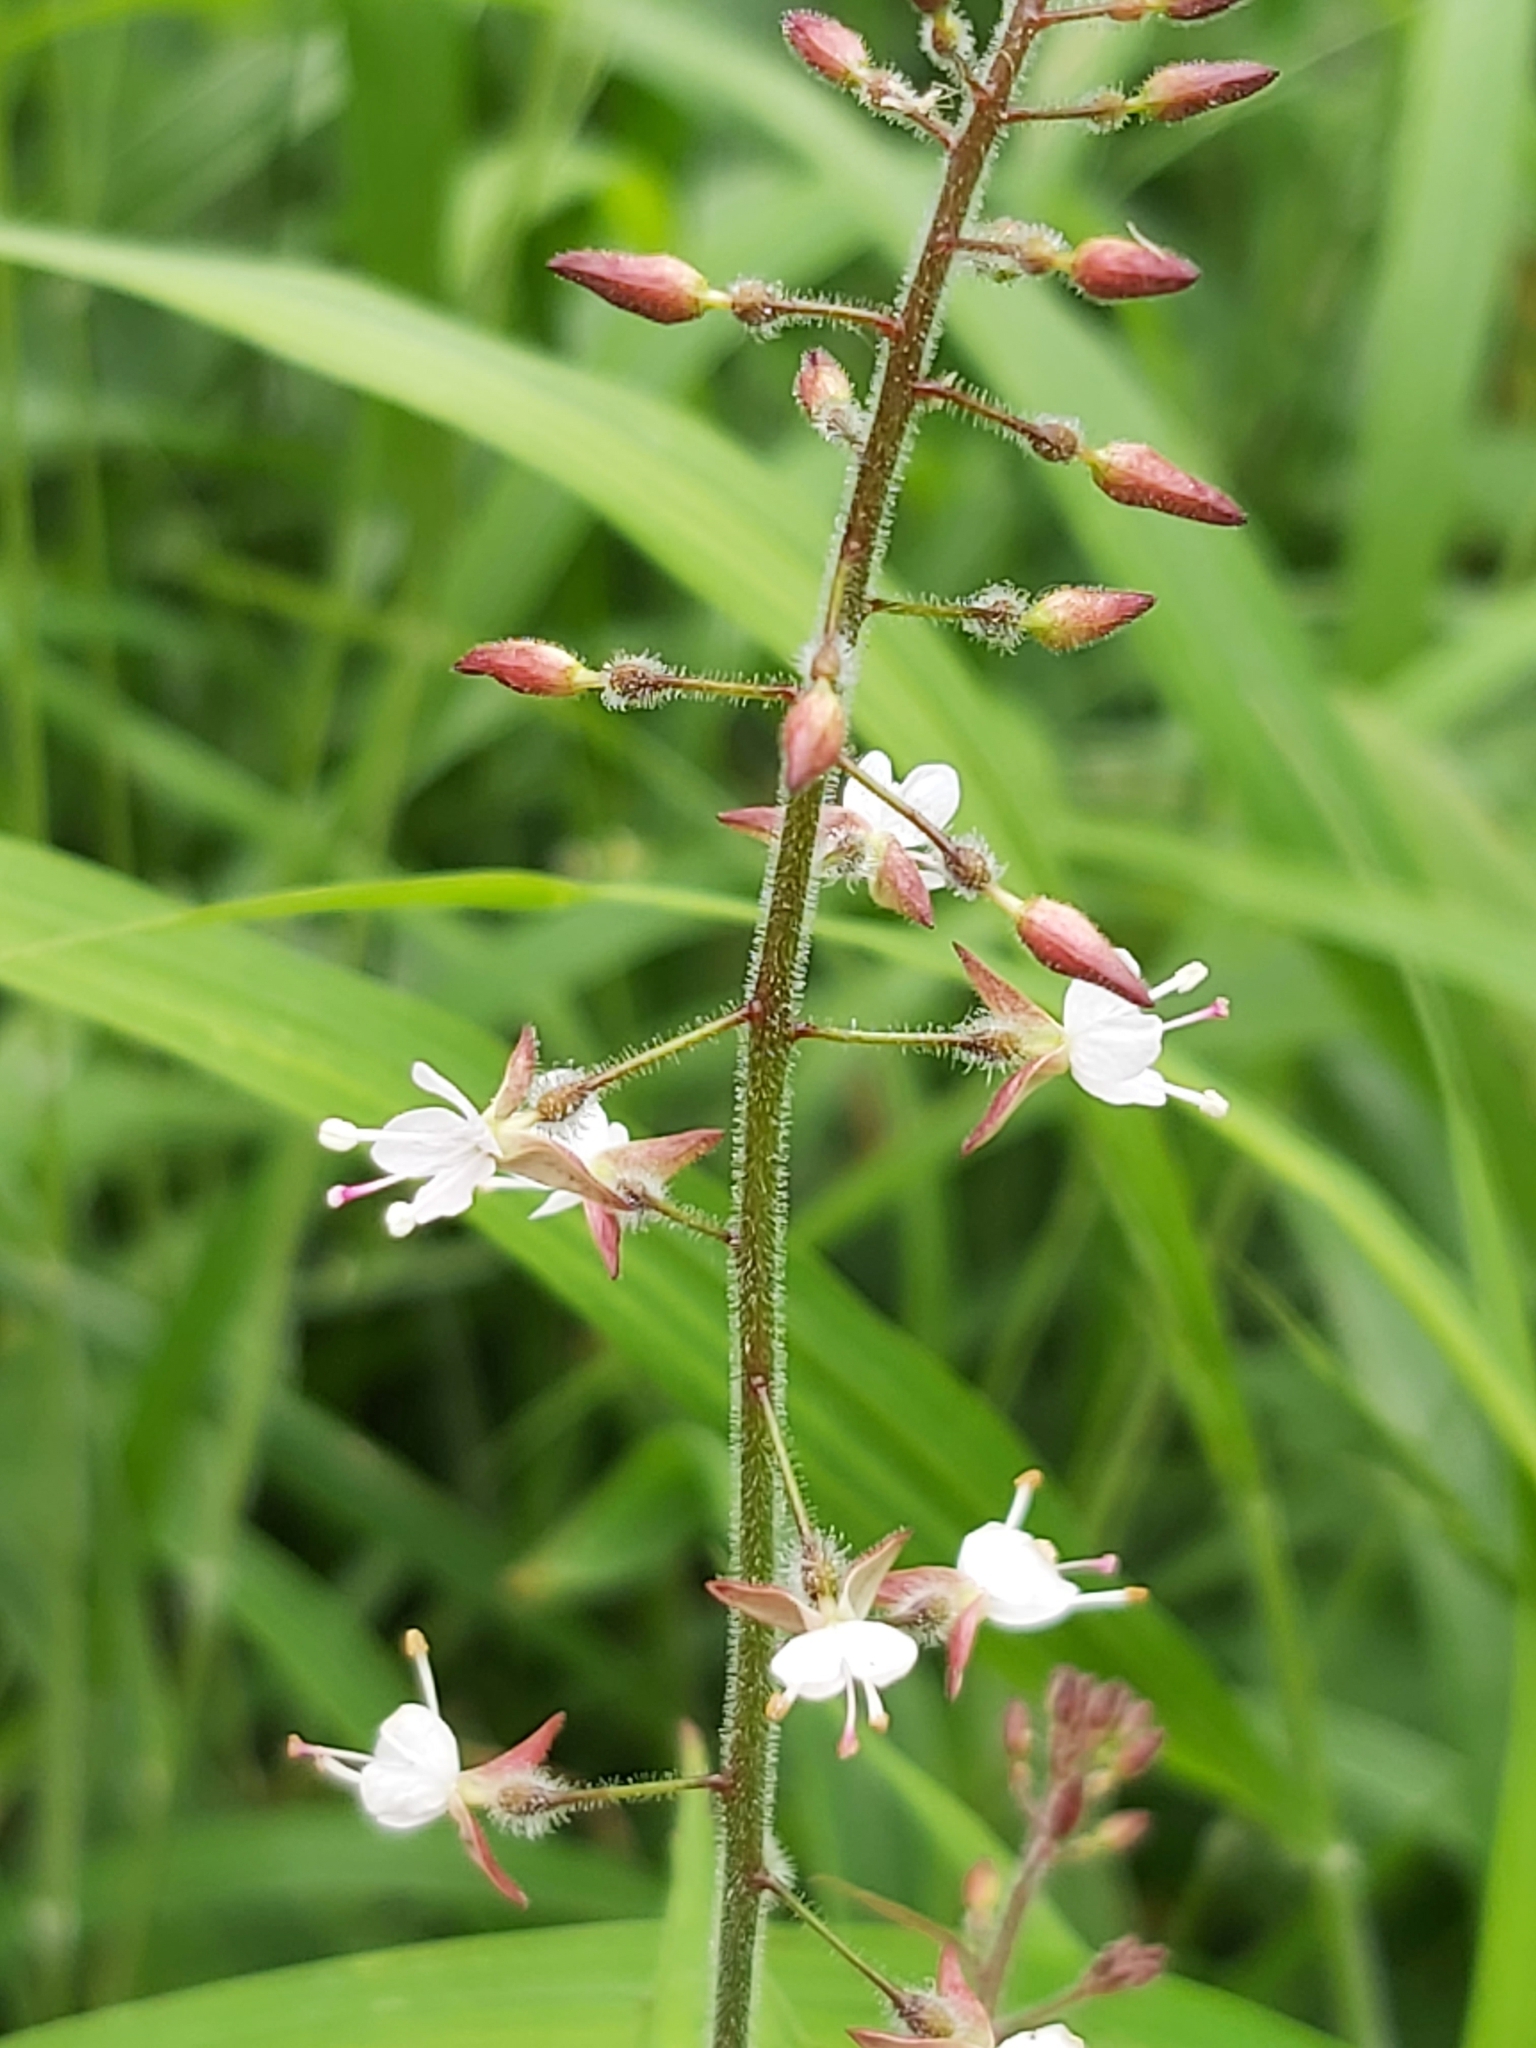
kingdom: Plantae
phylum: Tracheophyta
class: Magnoliopsida
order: Myrtales
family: Onagraceae
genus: Circaea
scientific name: Circaea lutetiana
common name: Enchanter's-nightshade
